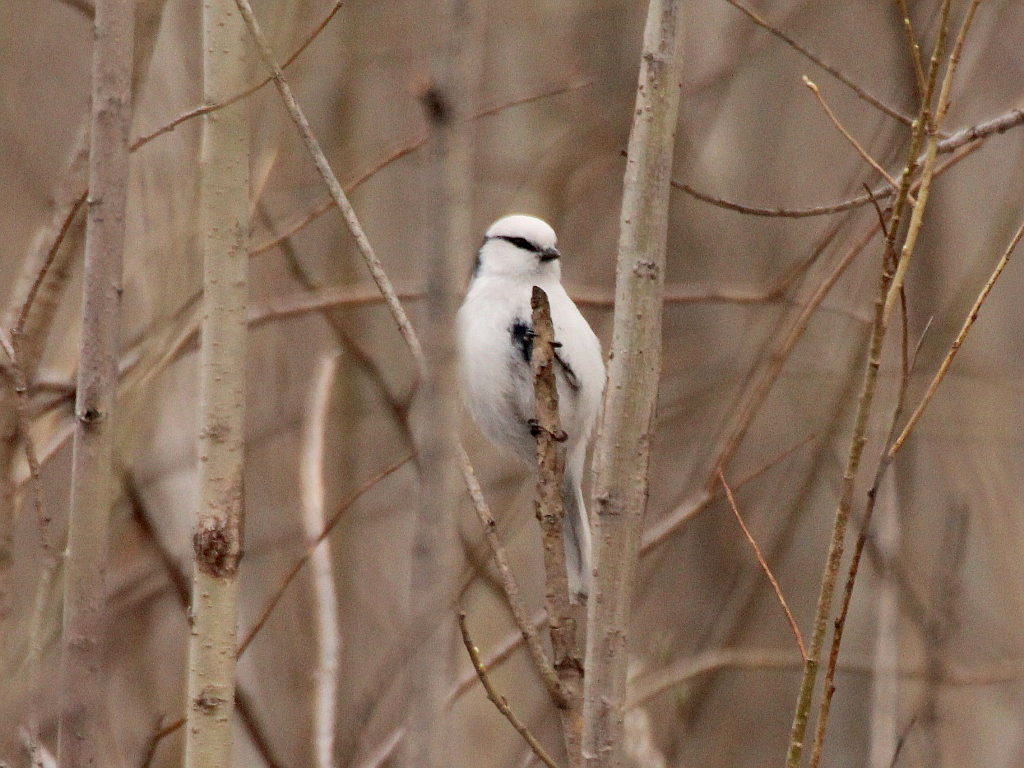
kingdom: Animalia
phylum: Chordata
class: Aves
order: Passeriformes
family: Paridae
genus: Cyanistes
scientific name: Cyanistes cyanus
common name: Azure tit
